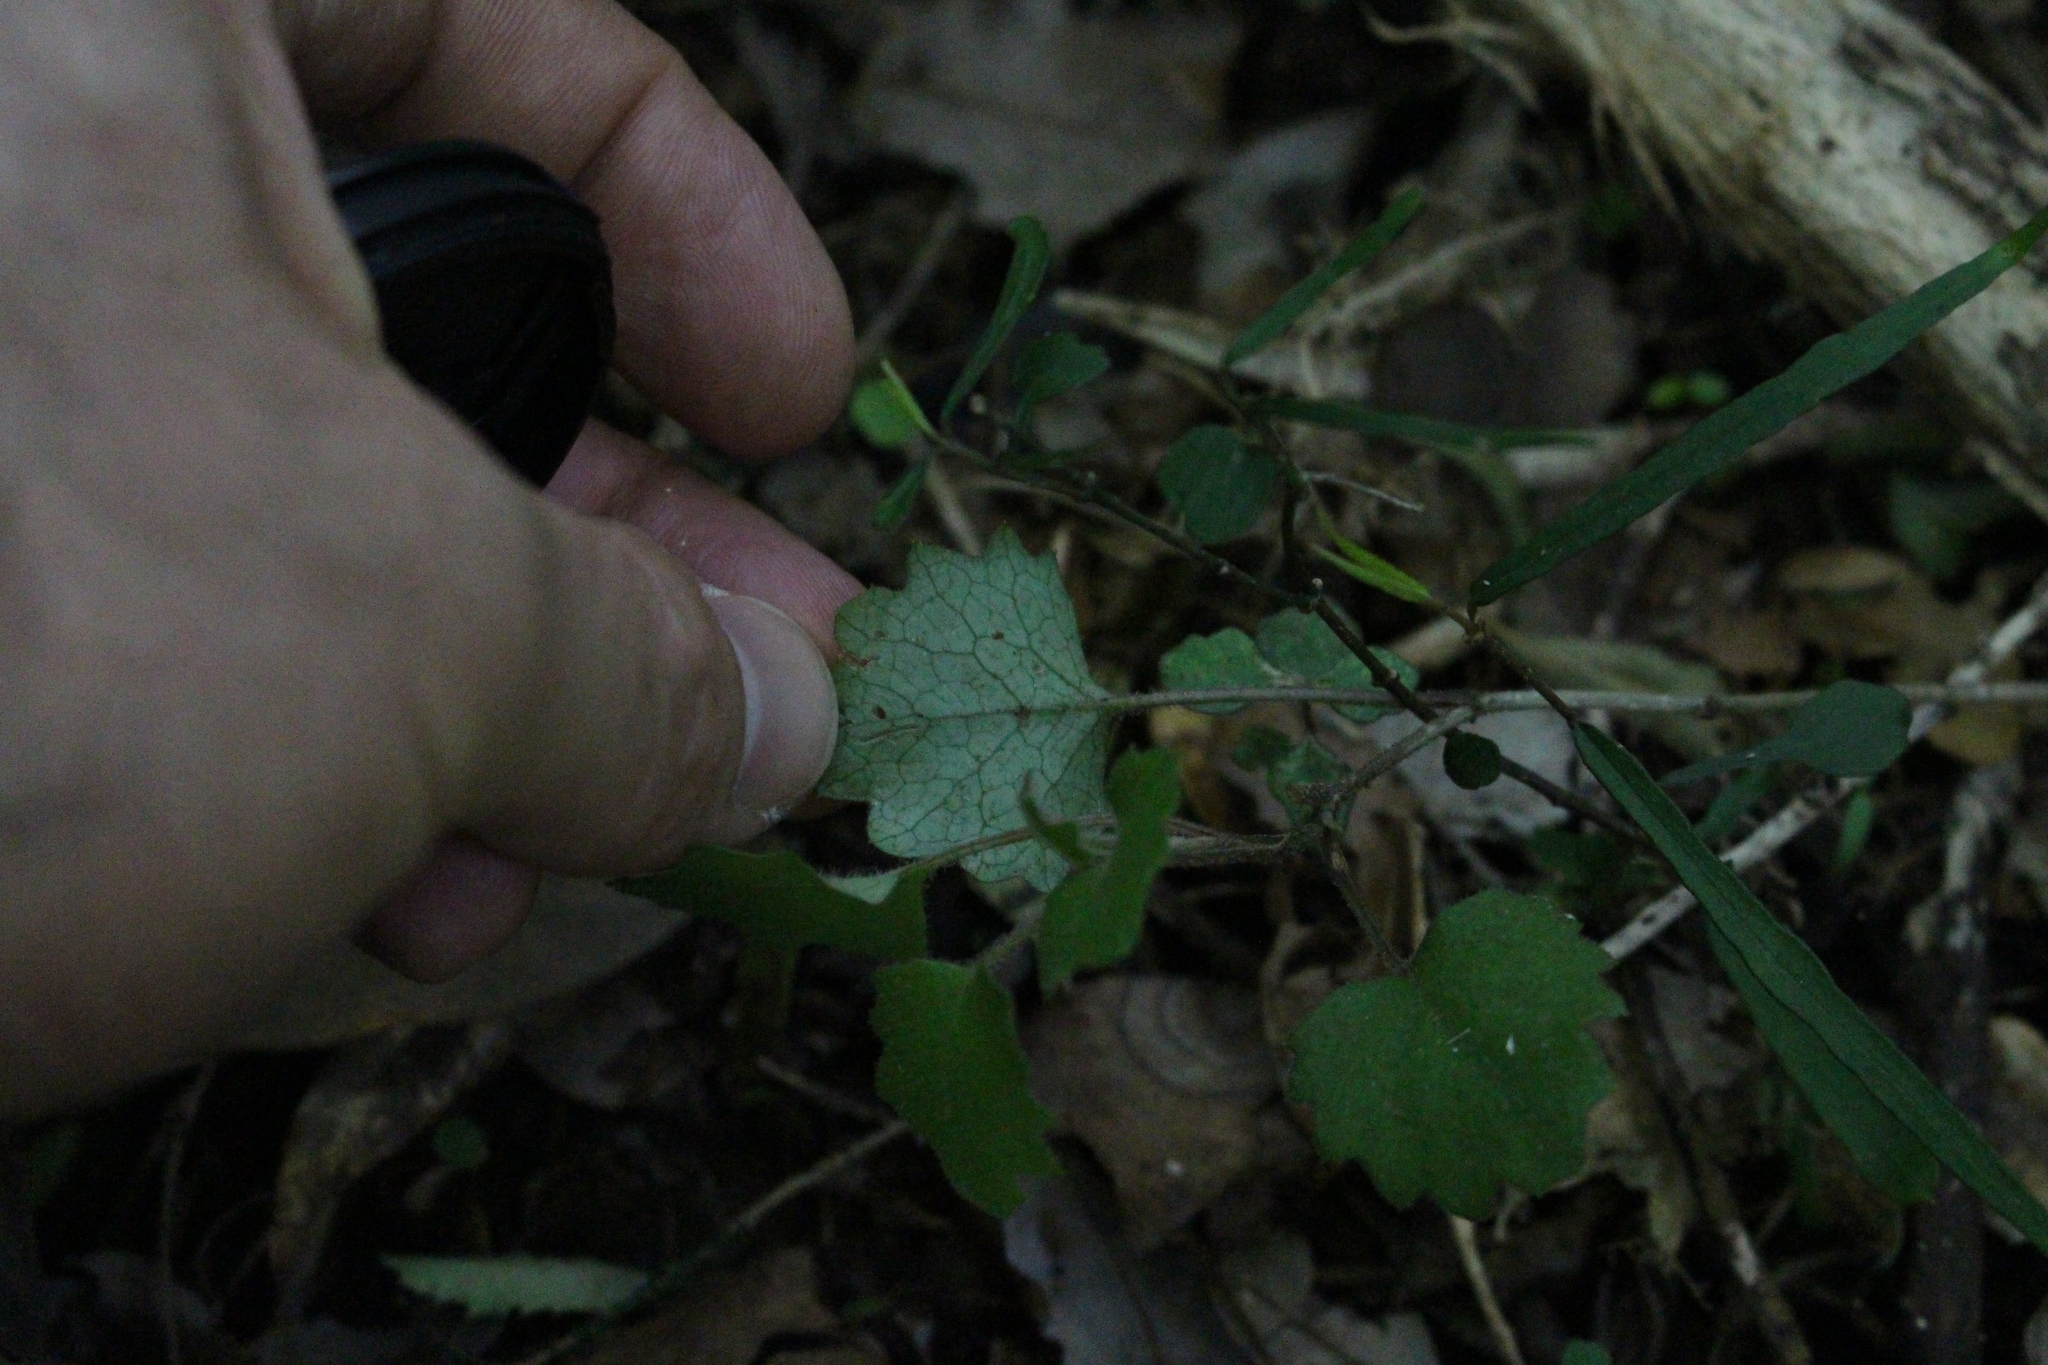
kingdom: Plantae
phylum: Tracheophyta
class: Magnoliopsida
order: Asterales
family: Asteraceae
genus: Brachyglottis
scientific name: Brachyglottis sciadophila
